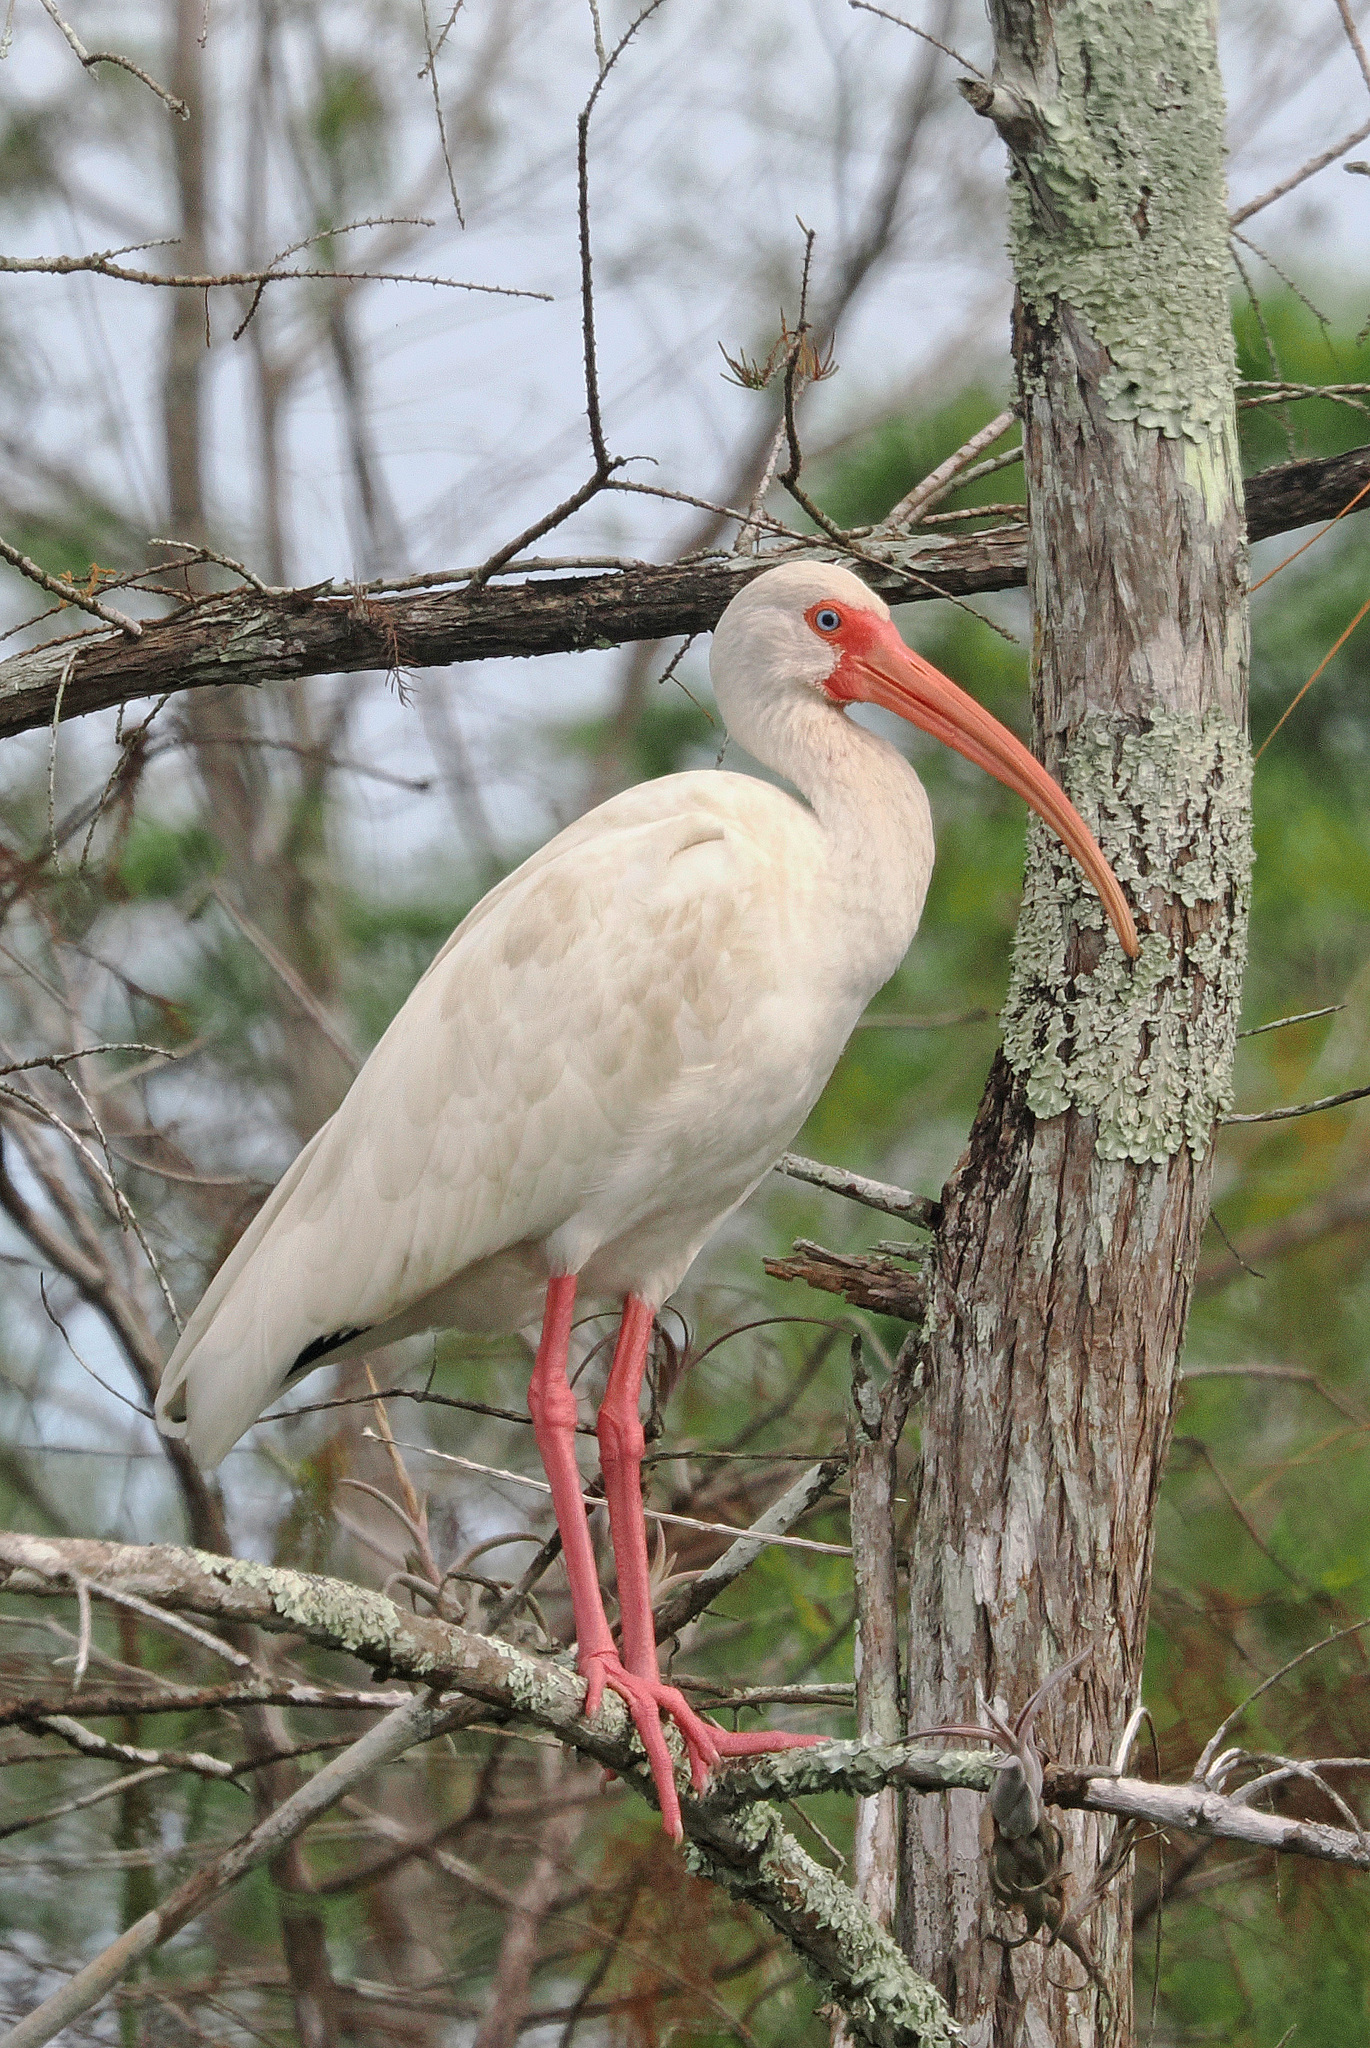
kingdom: Animalia
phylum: Chordata
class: Aves
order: Pelecaniformes
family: Threskiornithidae
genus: Eudocimus
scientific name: Eudocimus albus
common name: White ibis
